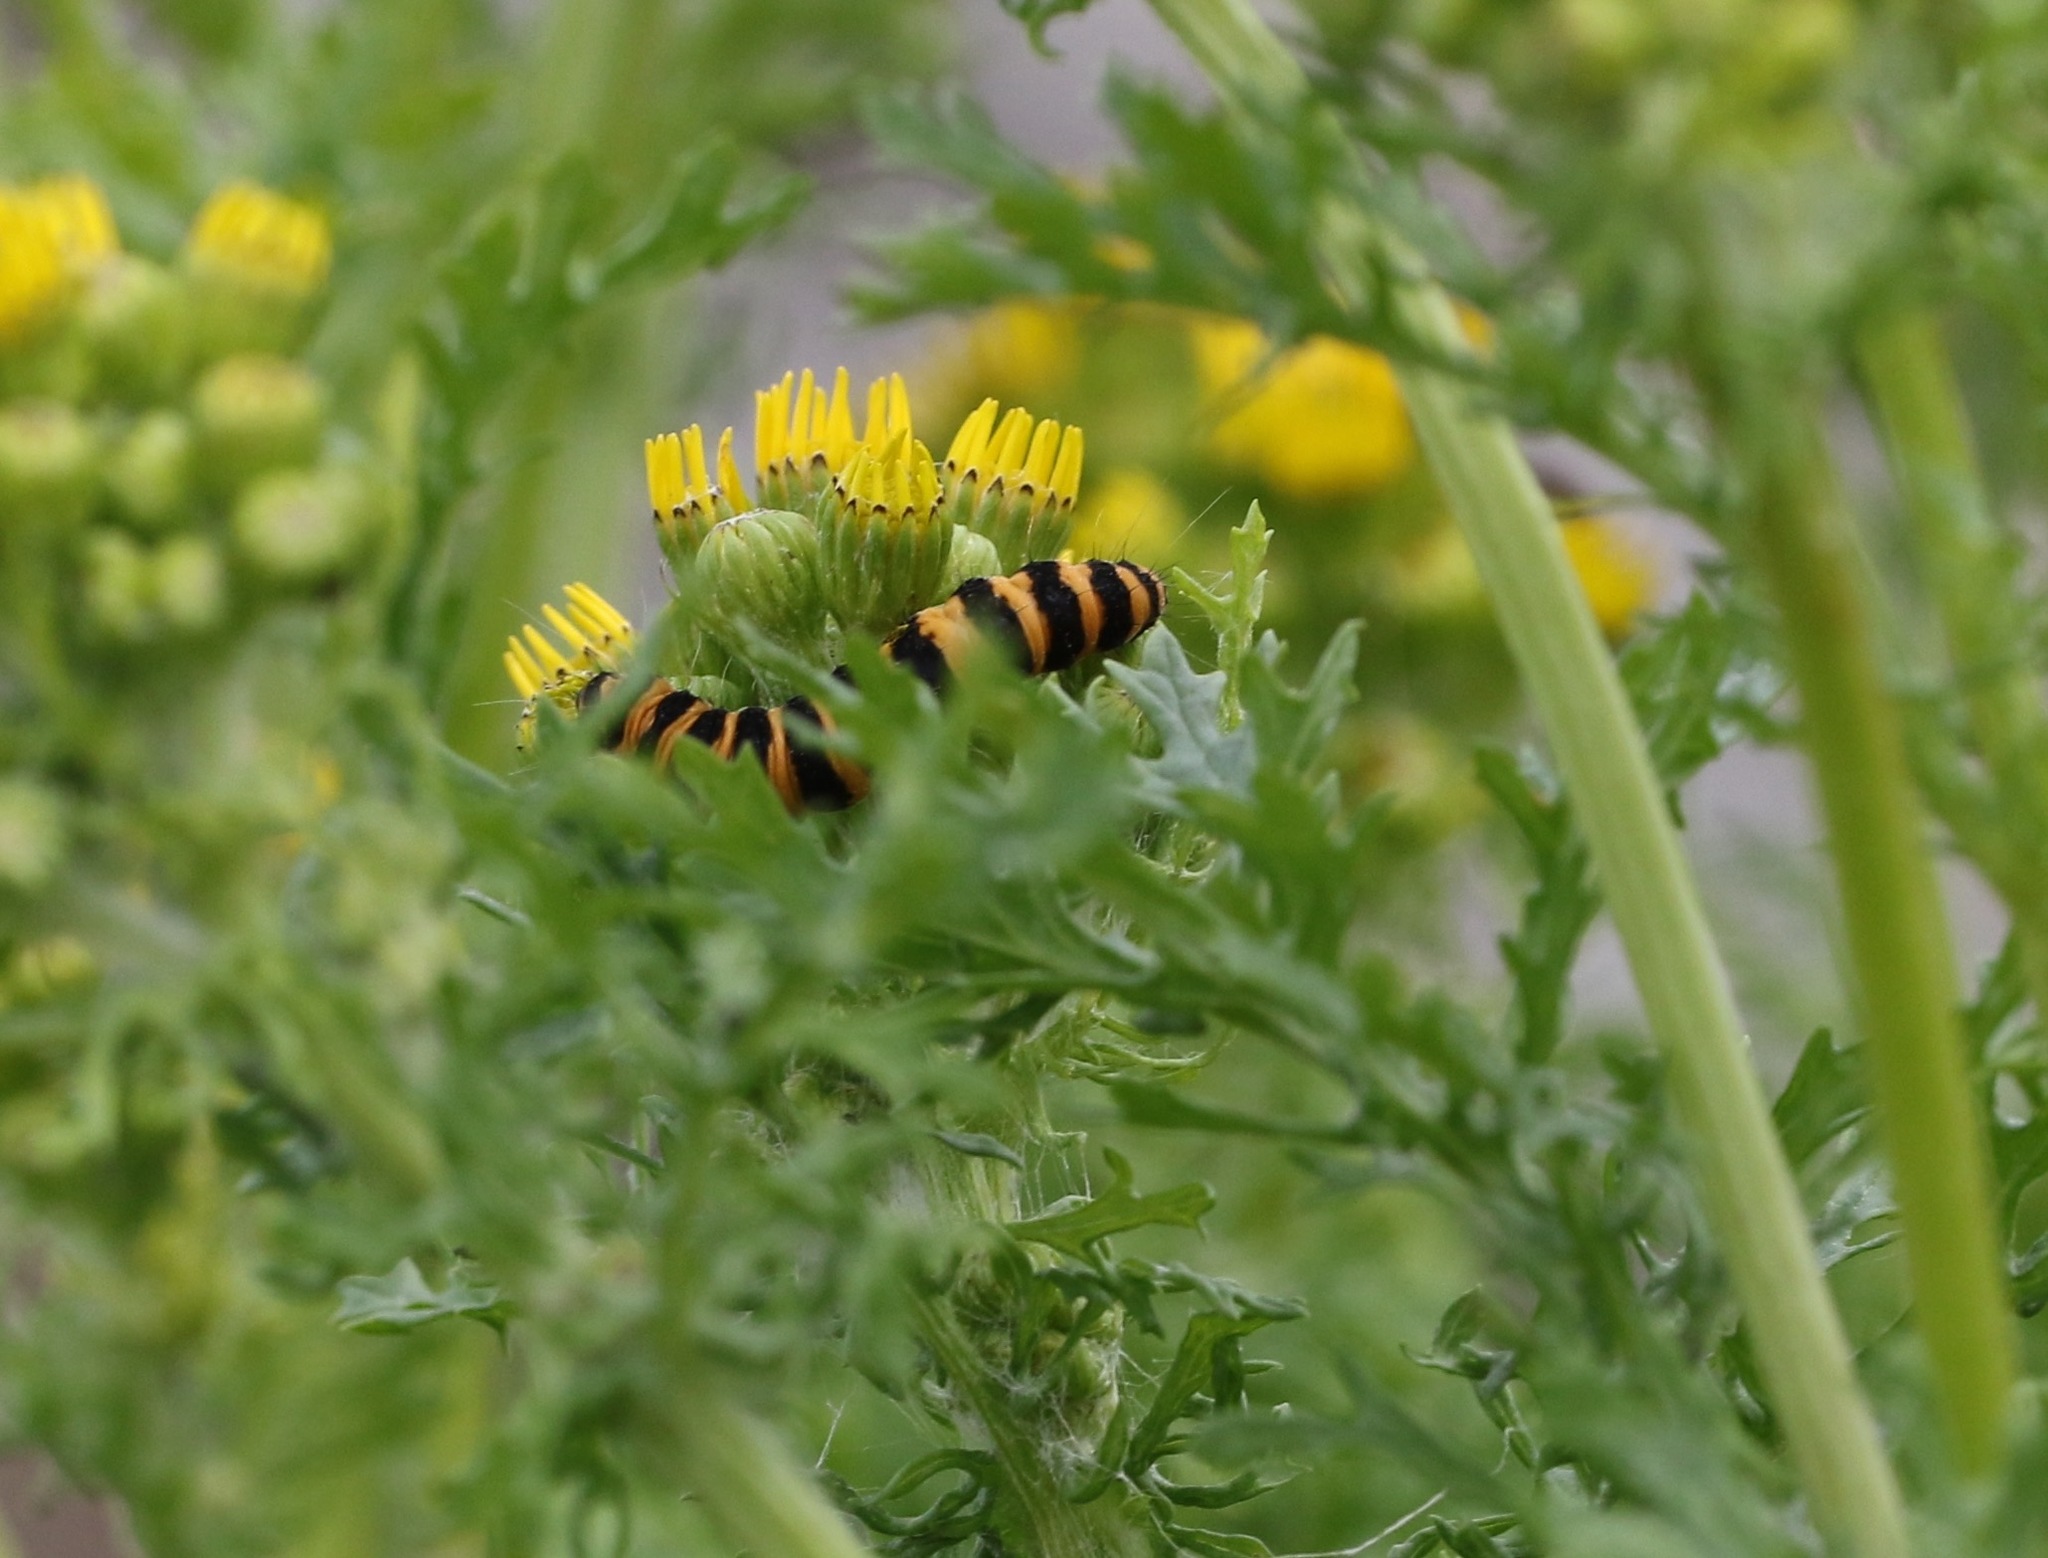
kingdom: Animalia
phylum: Arthropoda
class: Insecta
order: Lepidoptera
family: Erebidae
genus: Tyria
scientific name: Tyria jacobaeae
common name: Cinnabar
